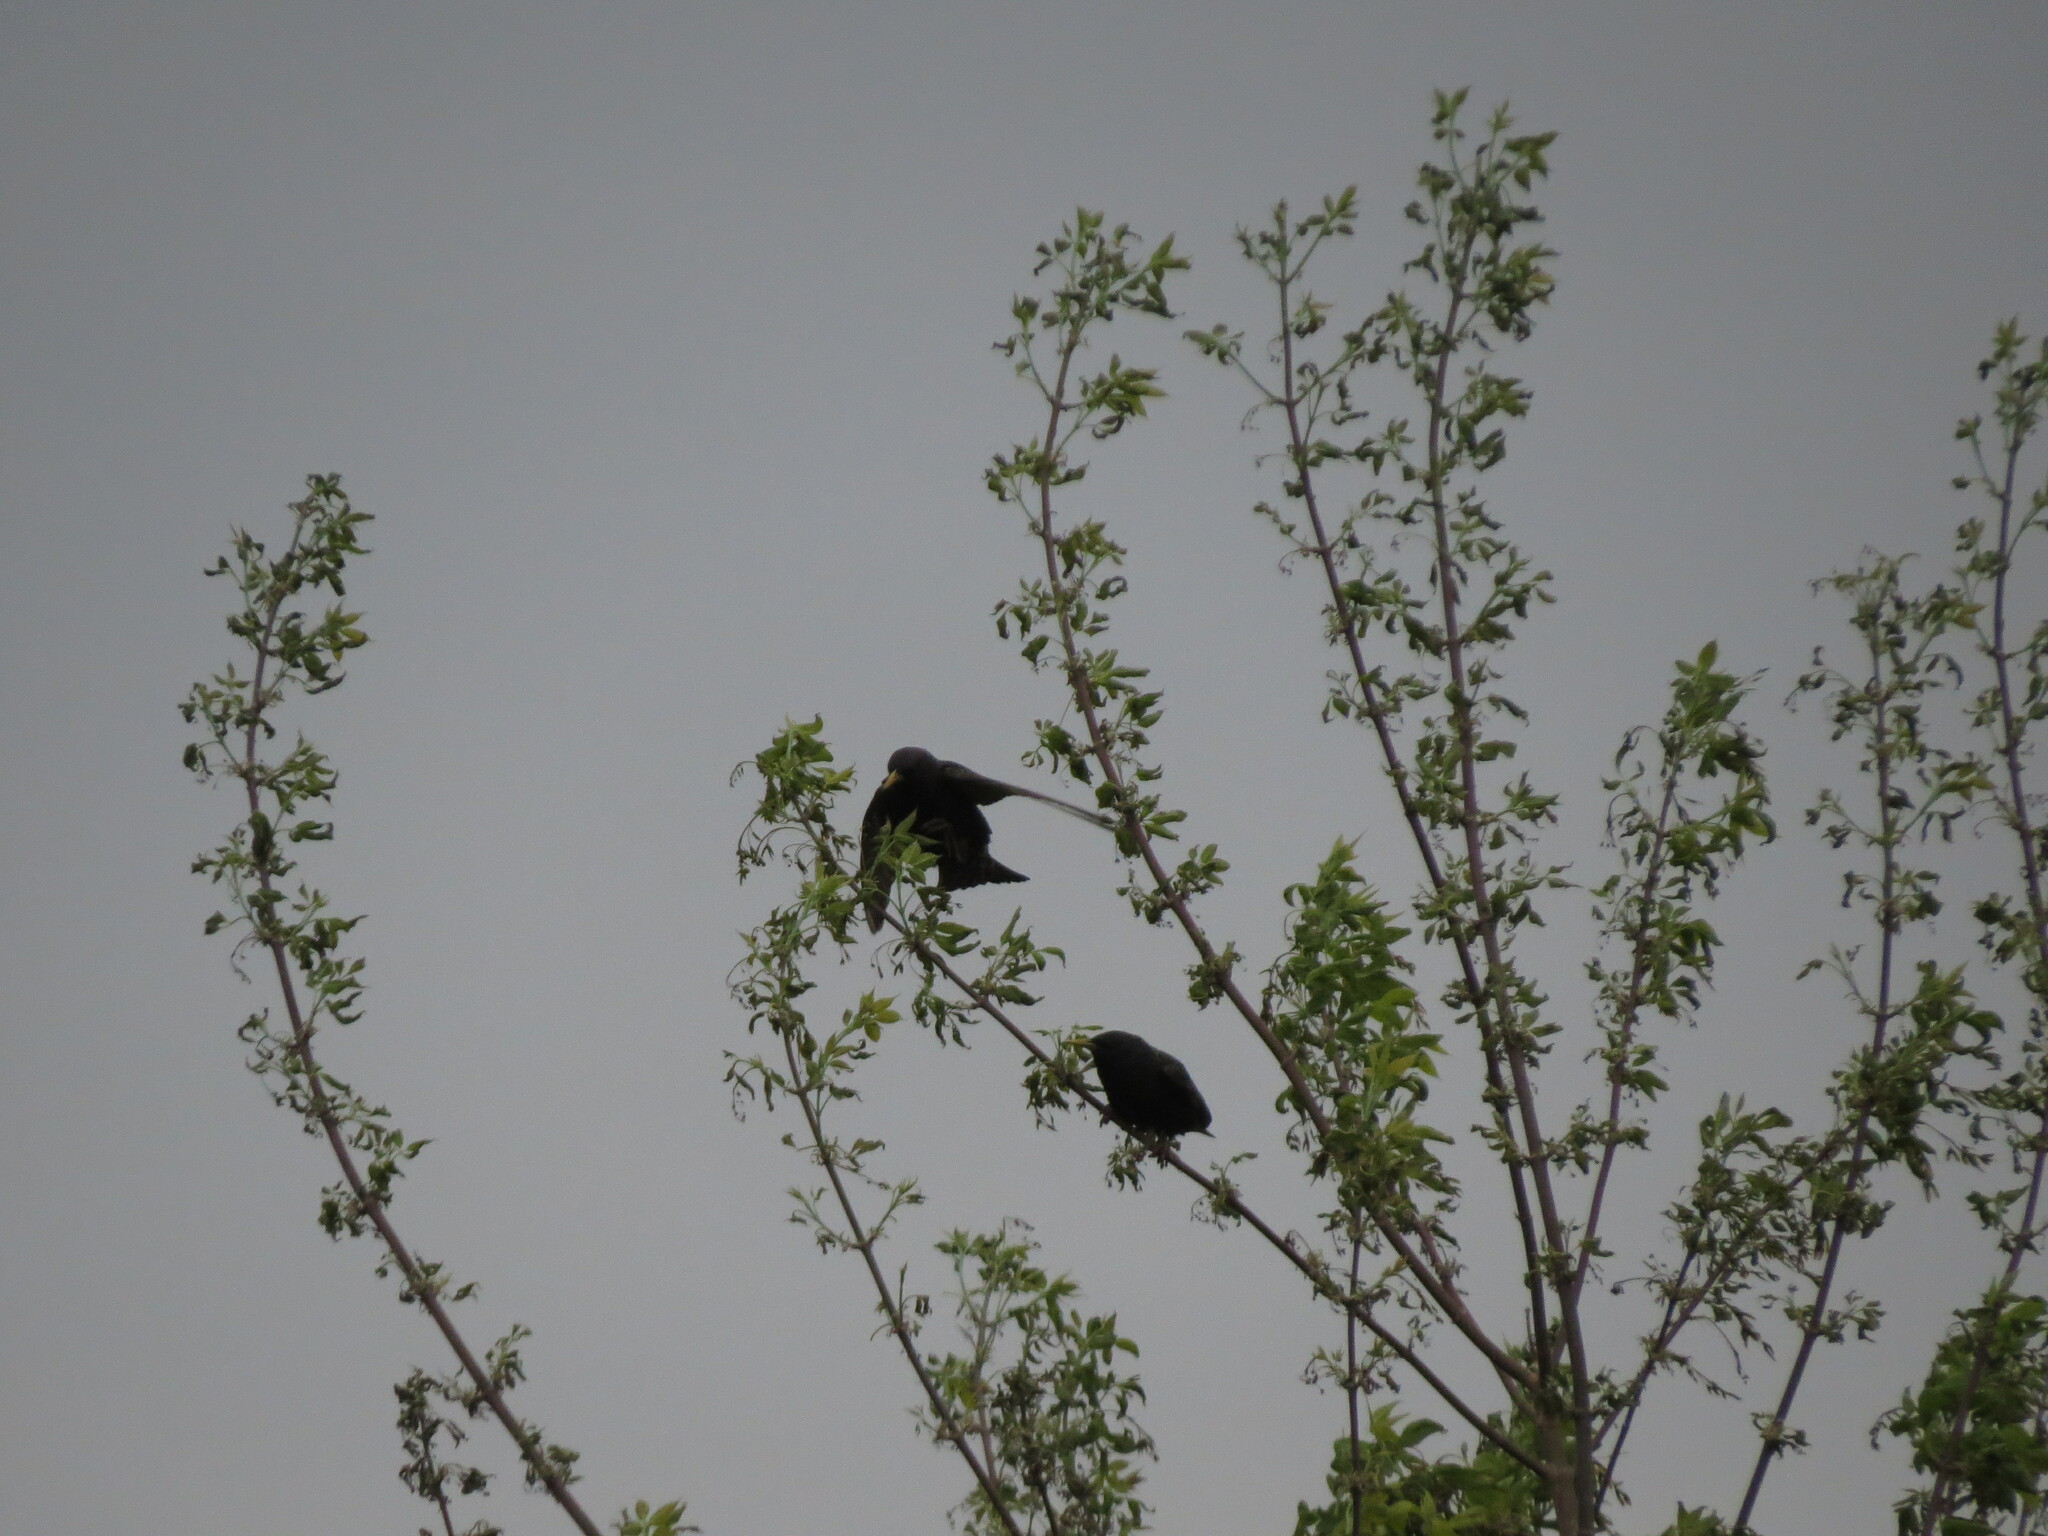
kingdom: Animalia
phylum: Chordata
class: Aves
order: Passeriformes
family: Sturnidae
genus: Sturnus
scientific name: Sturnus vulgaris
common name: Common starling
